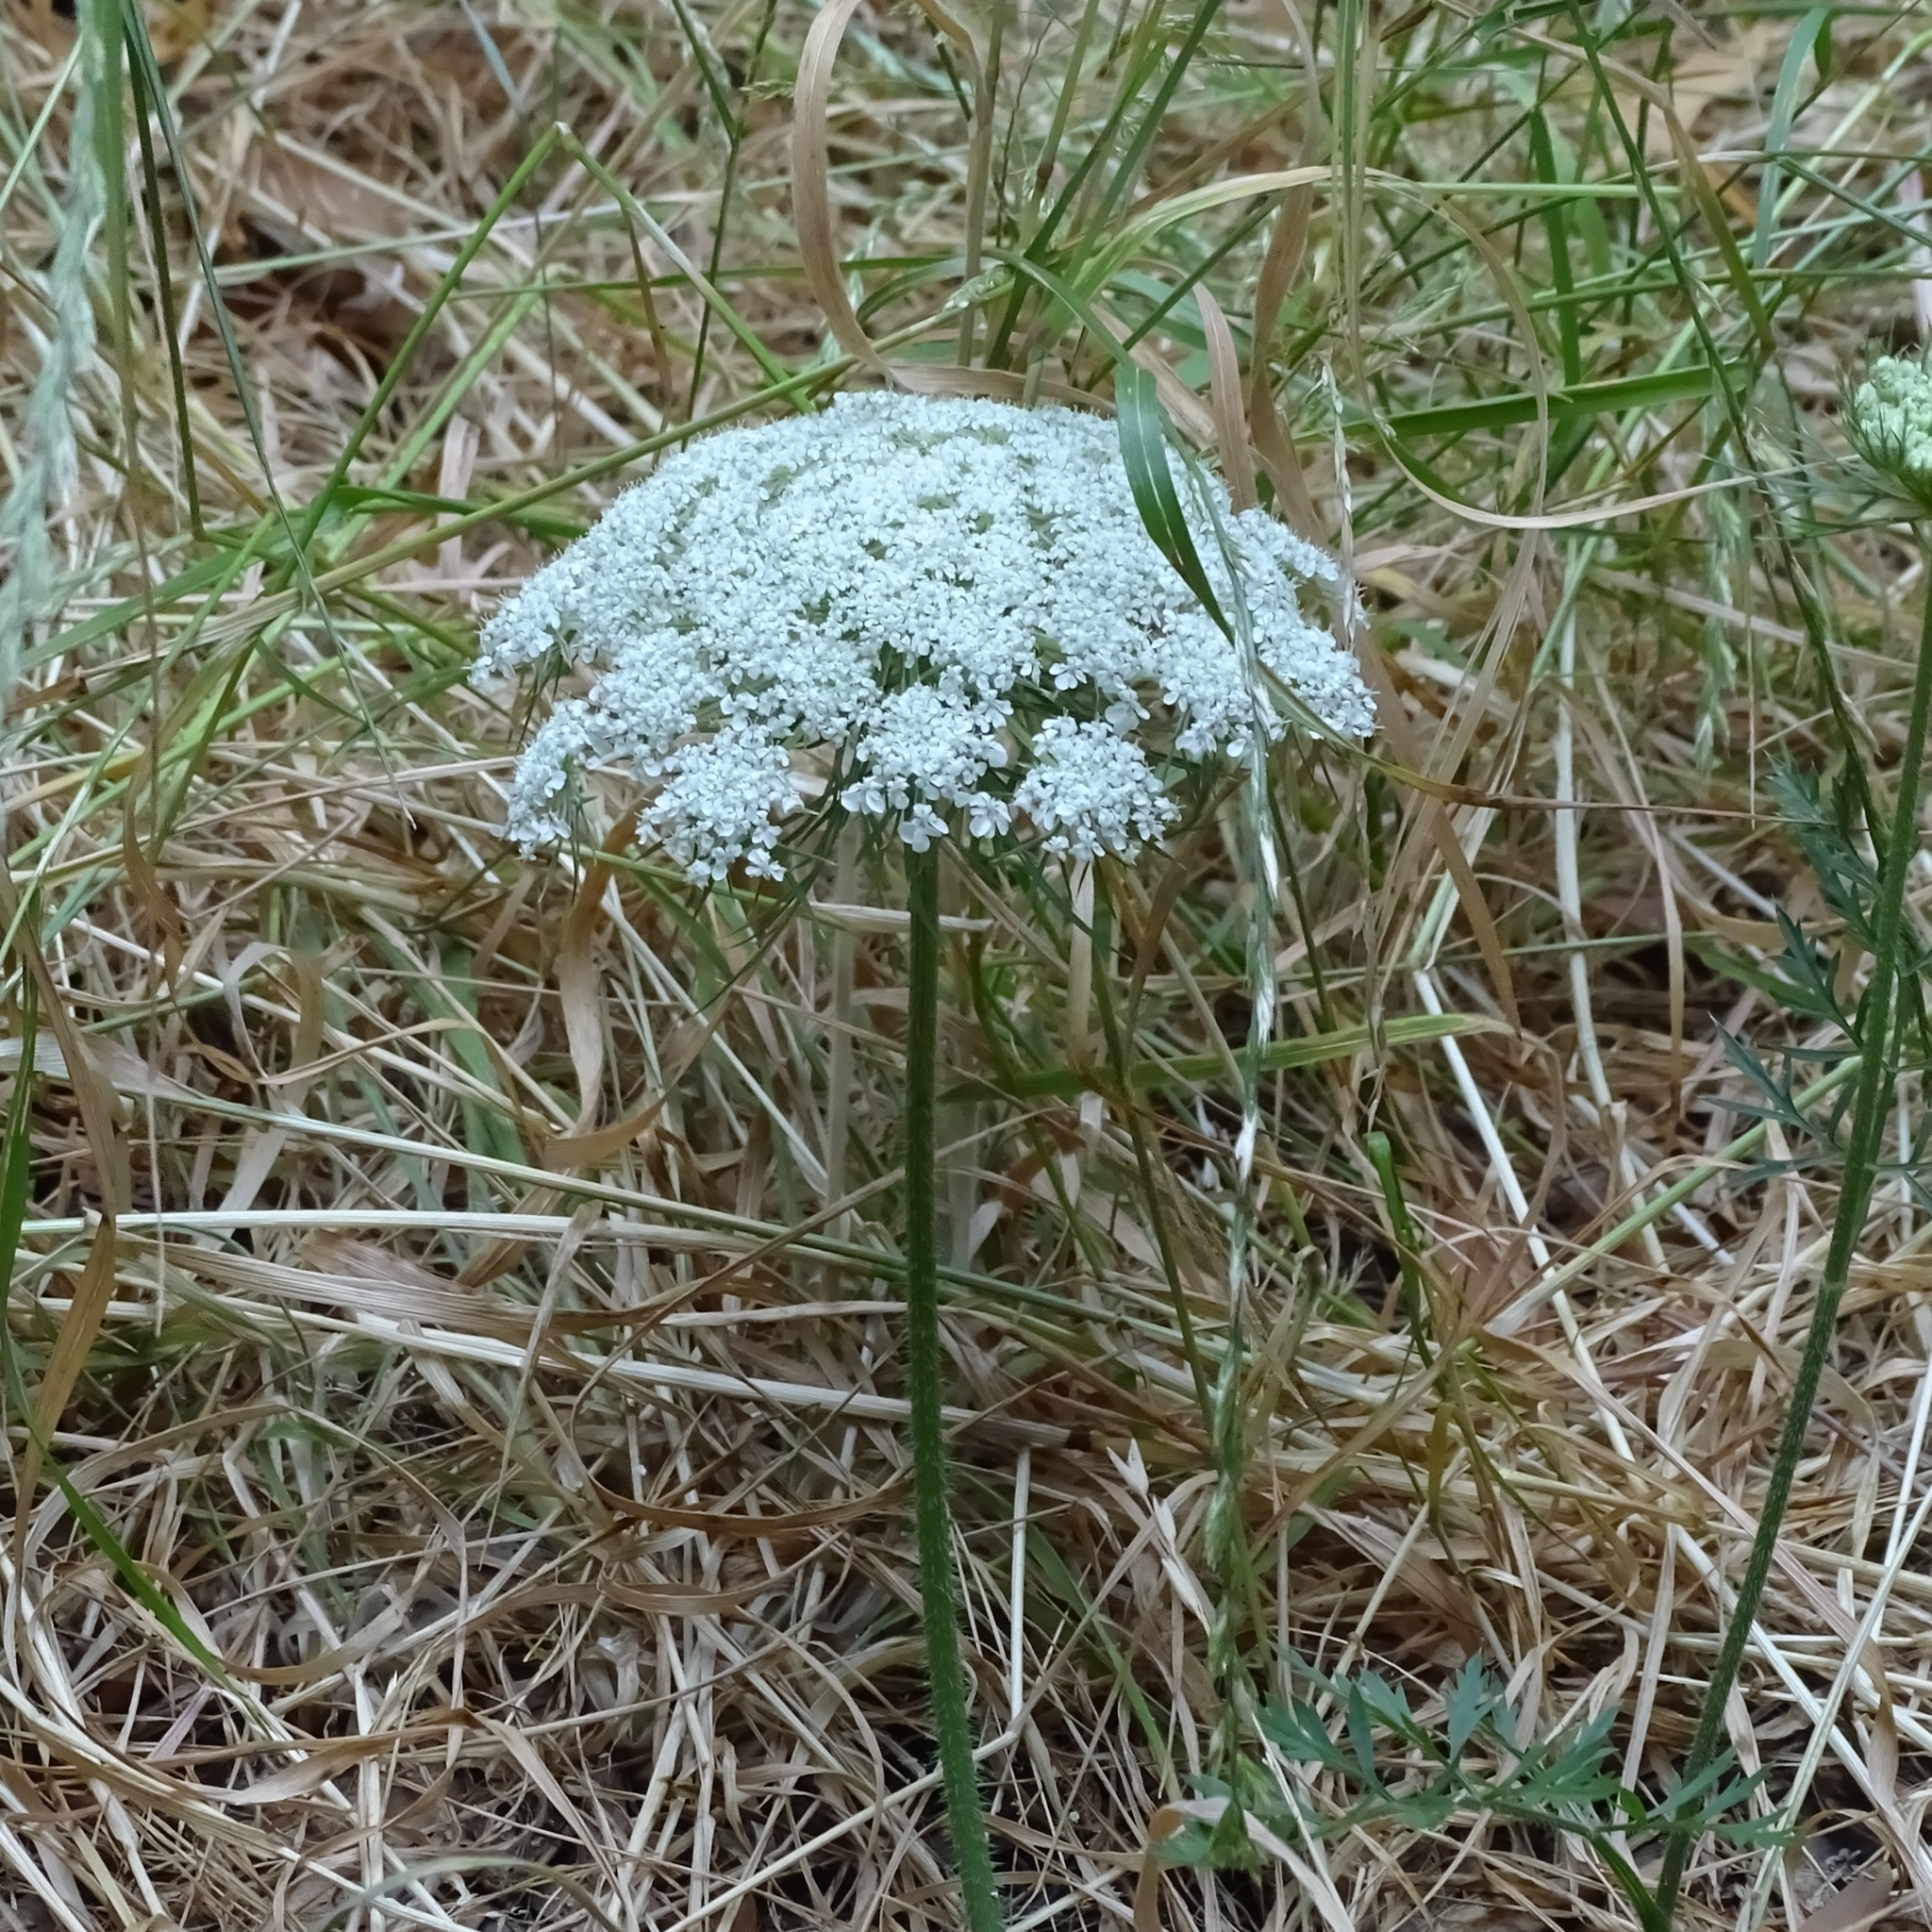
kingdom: Plantae
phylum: Tracheophyta
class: Magnoliopsida
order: Apiales
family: Apiaceae
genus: Conium
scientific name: Conium maculatum
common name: Hemlock
